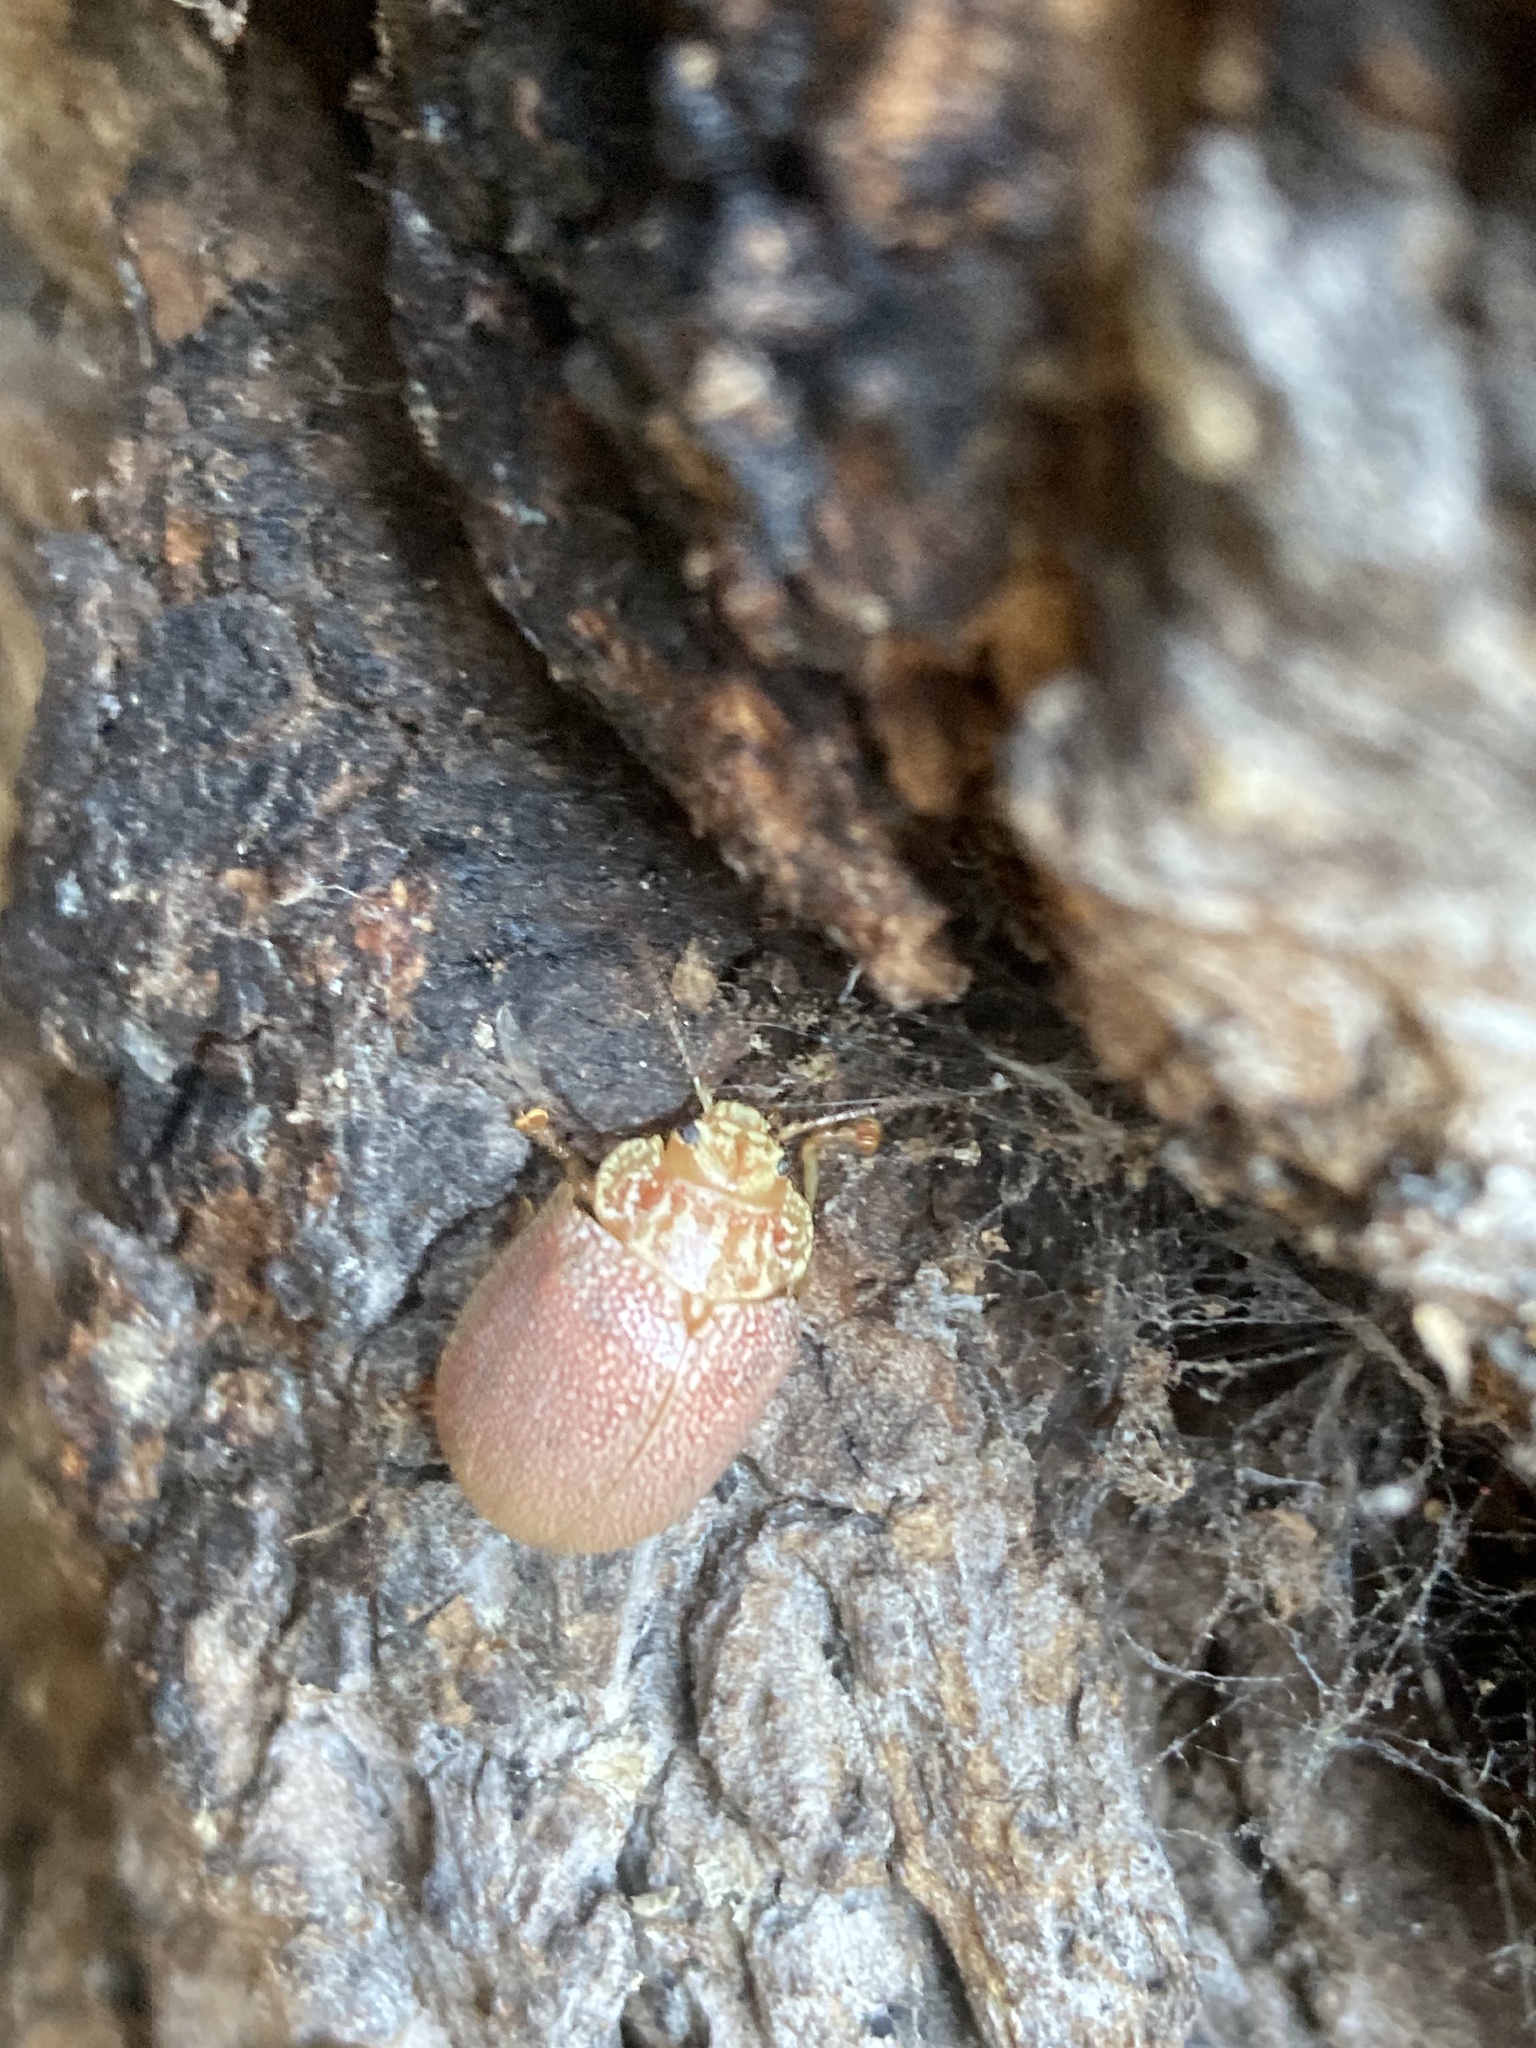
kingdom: Animalia
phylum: Arthropoda
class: Insecta
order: Coleoptera
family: Chrysomelidae
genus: Paropsis
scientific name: Paropsis
